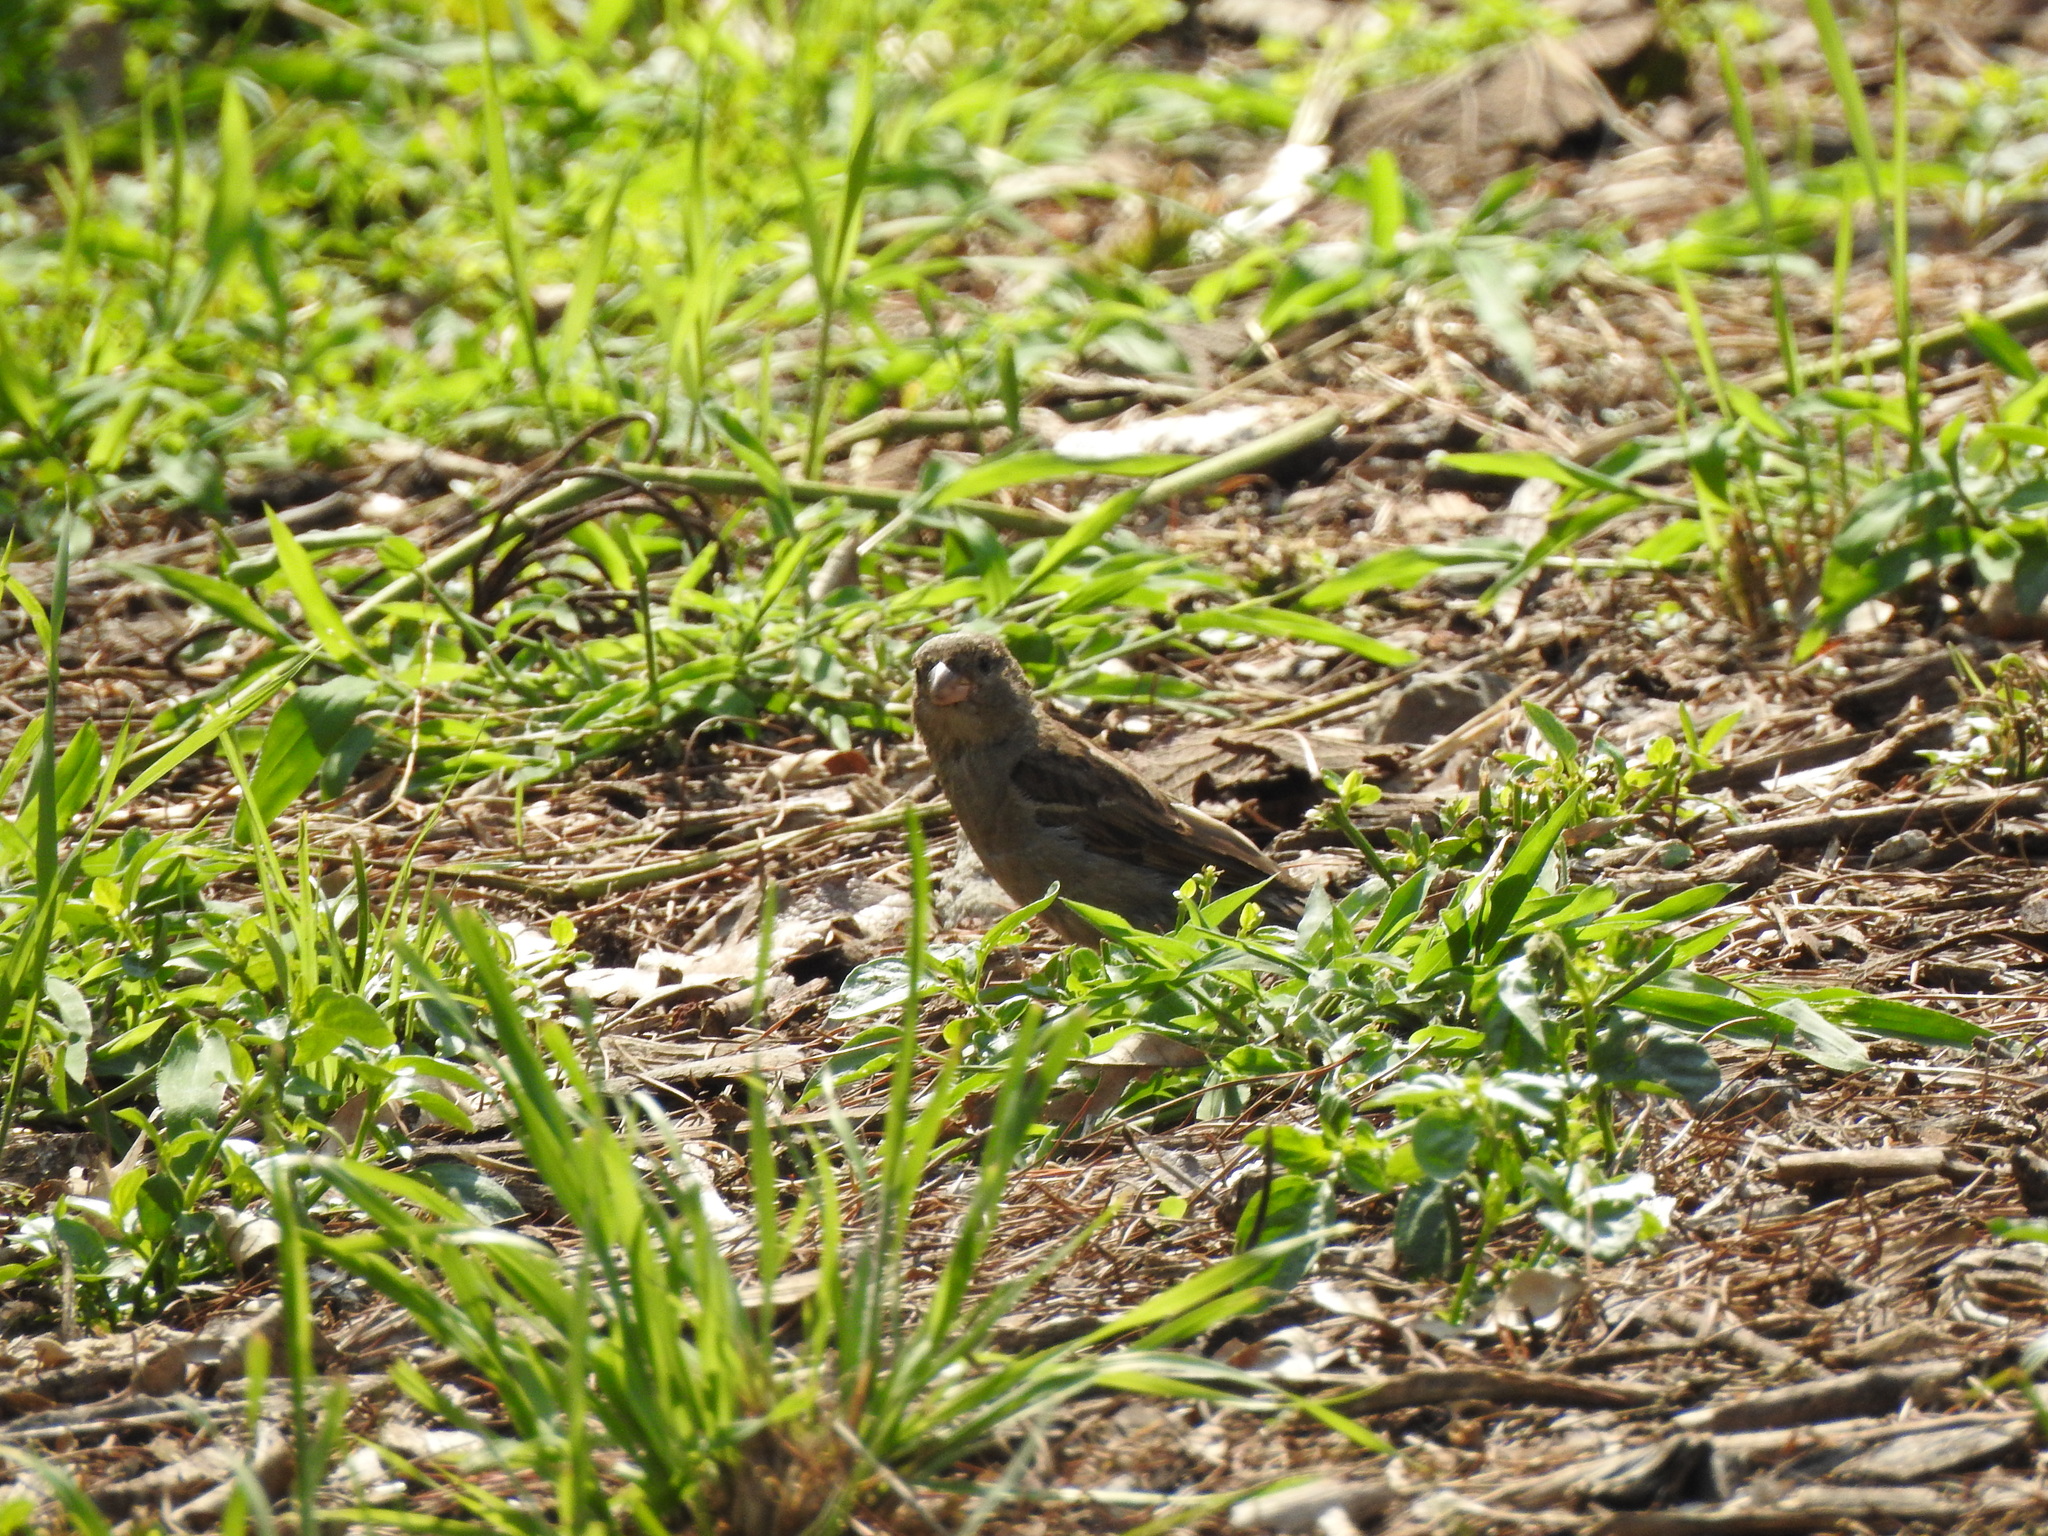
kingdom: Animalia
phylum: Chordata
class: Aves
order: Passeriformes
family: Passeridae
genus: Passer
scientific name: Passer domesticus
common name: House sparrow
